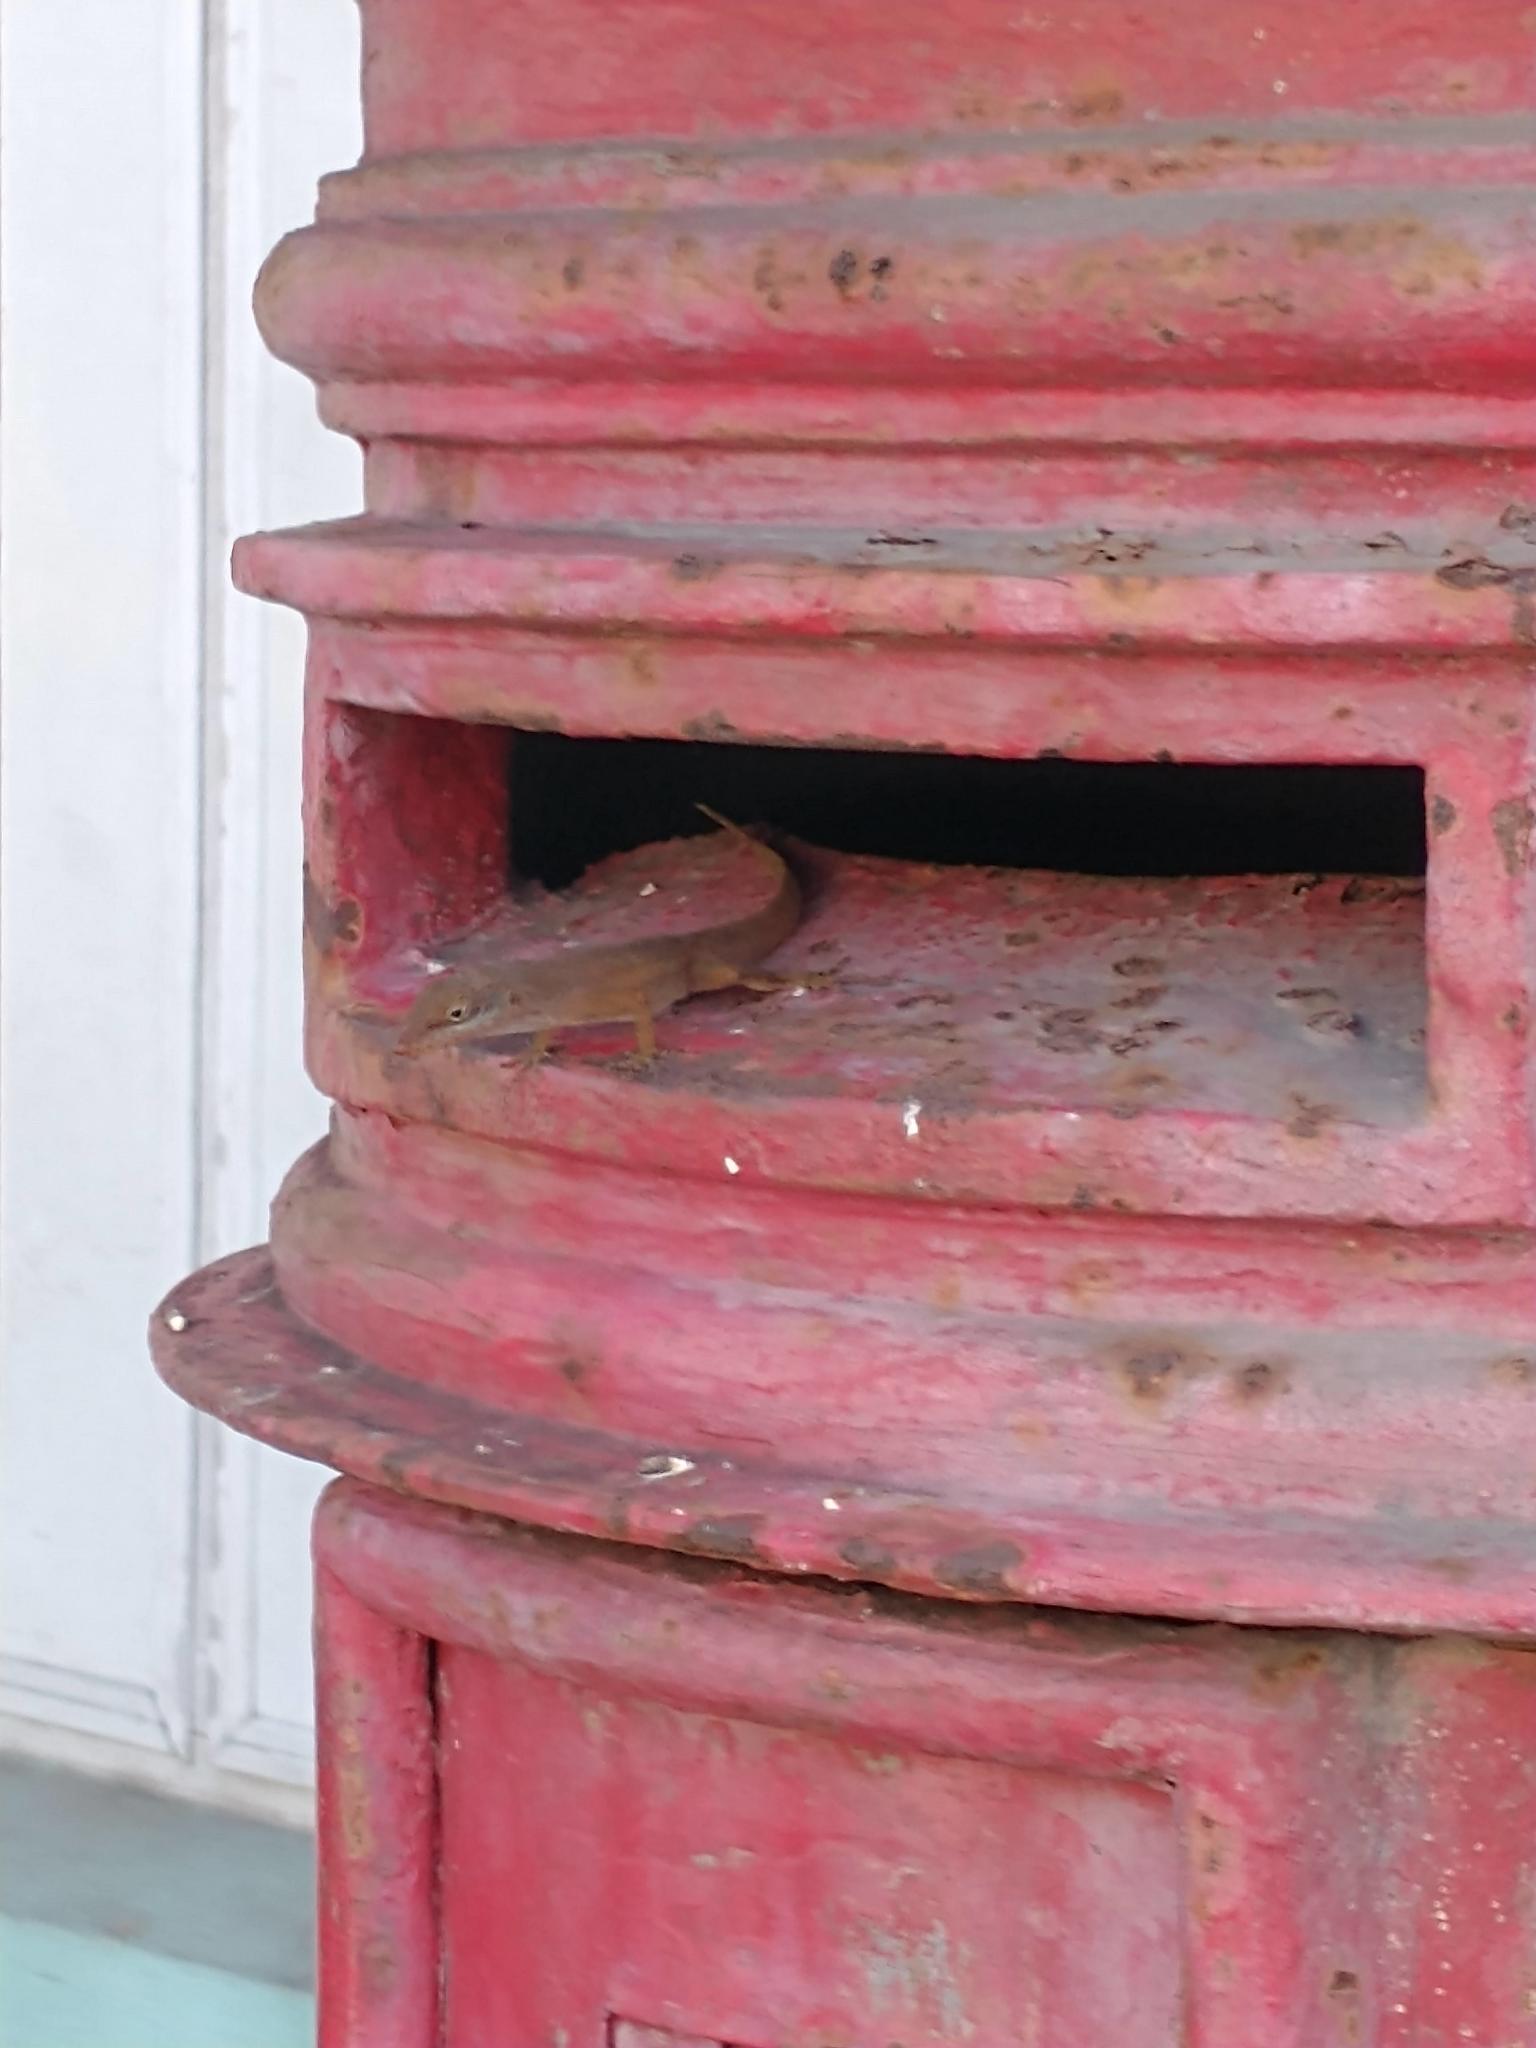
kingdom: Animalia
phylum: Chordata
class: Squamata
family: Dactyloidae
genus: Anolis
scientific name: Anolis wattsii
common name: Antigua bank bush anole
